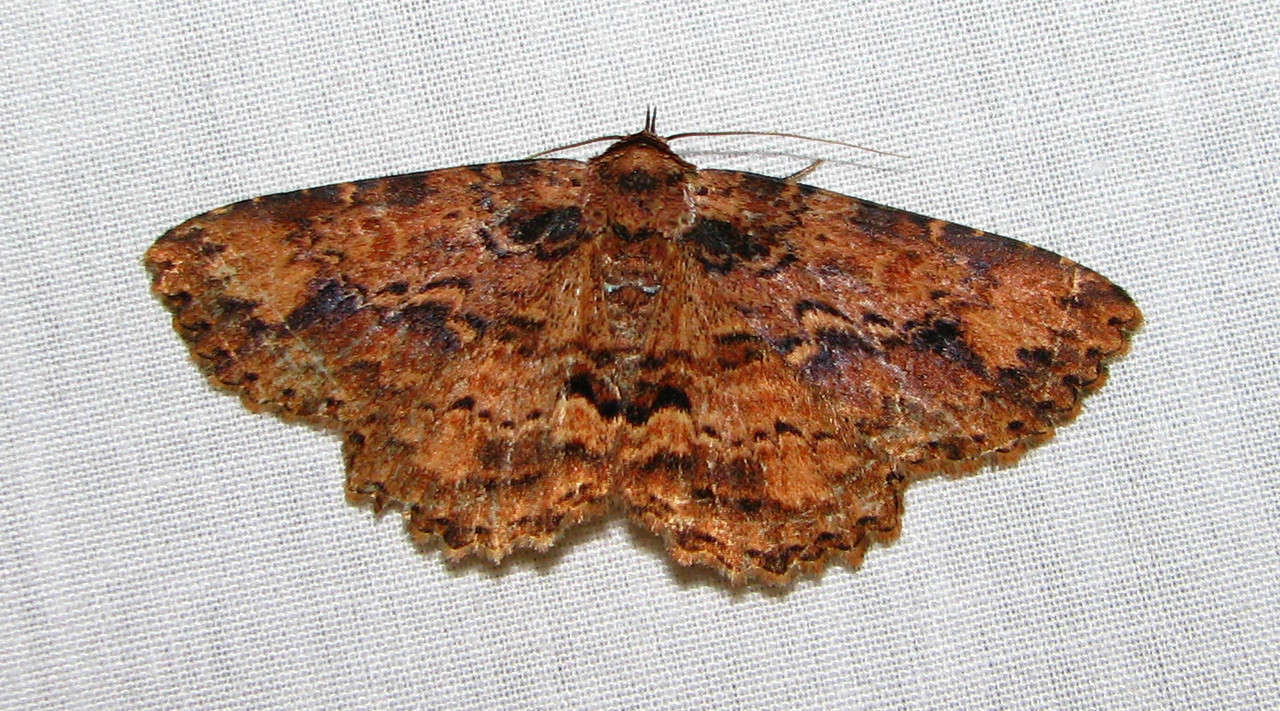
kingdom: Animalia
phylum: Arthropoda
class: Insecta
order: Lepidoptera
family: Erebidae
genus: Artigisa
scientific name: Artigisa melanephele
